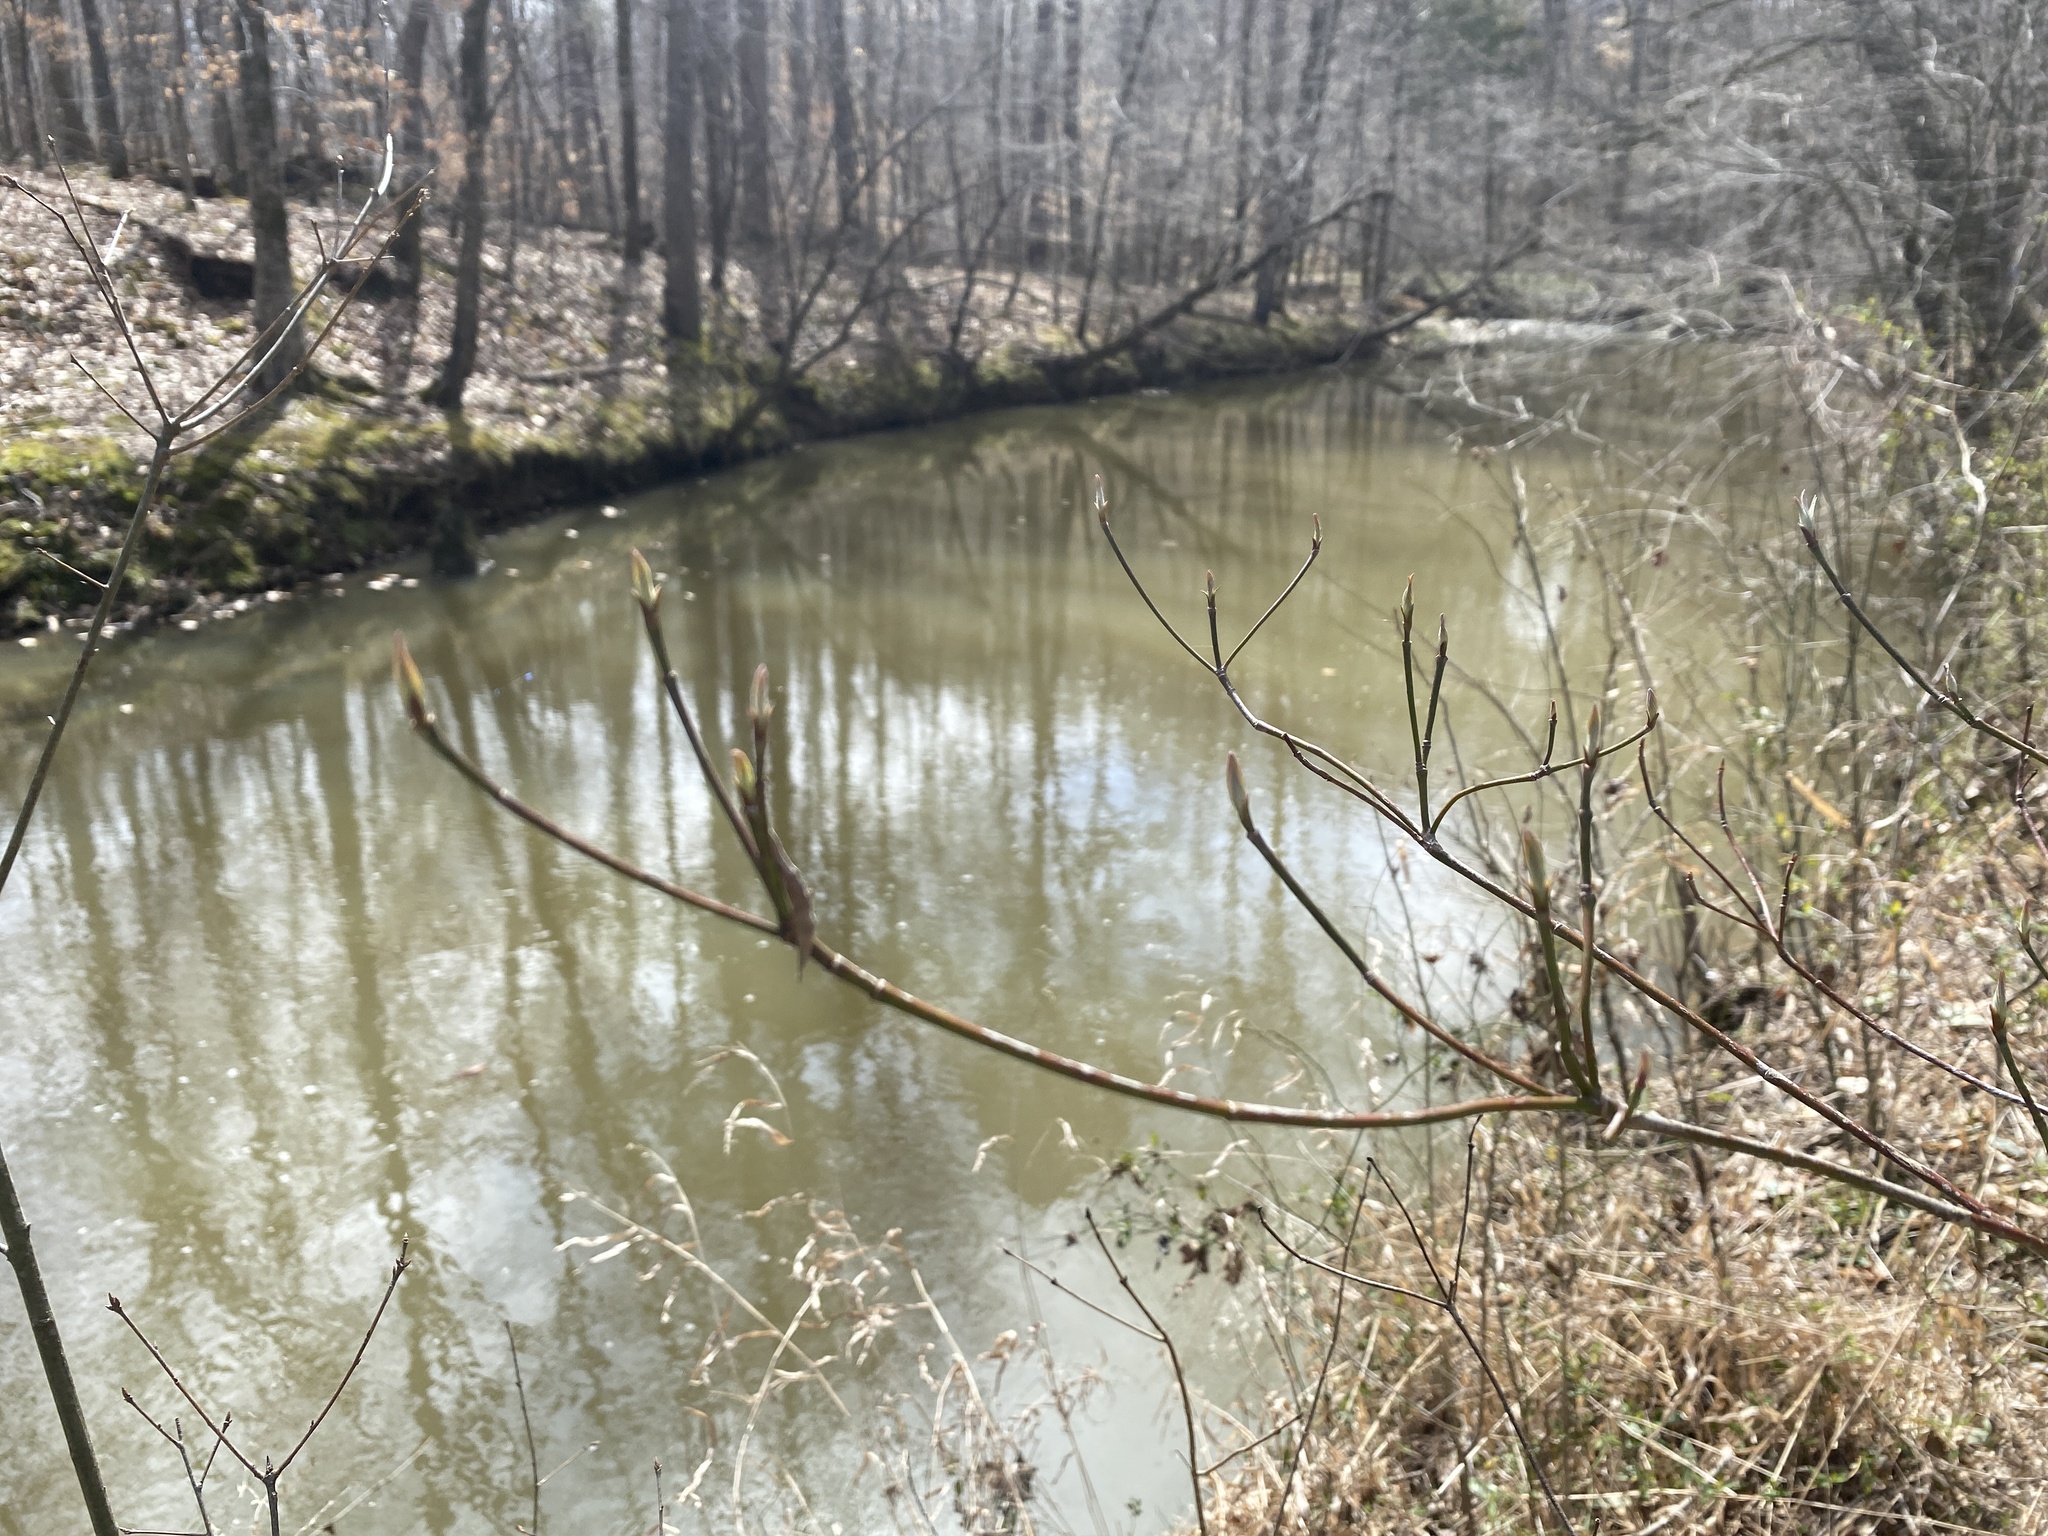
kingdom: Plantae
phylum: Tracheophyta
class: Magnoliopsida
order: Cornales
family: Cornaceae
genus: Cornus
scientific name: Cornus florida
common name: Flowering dogwood
